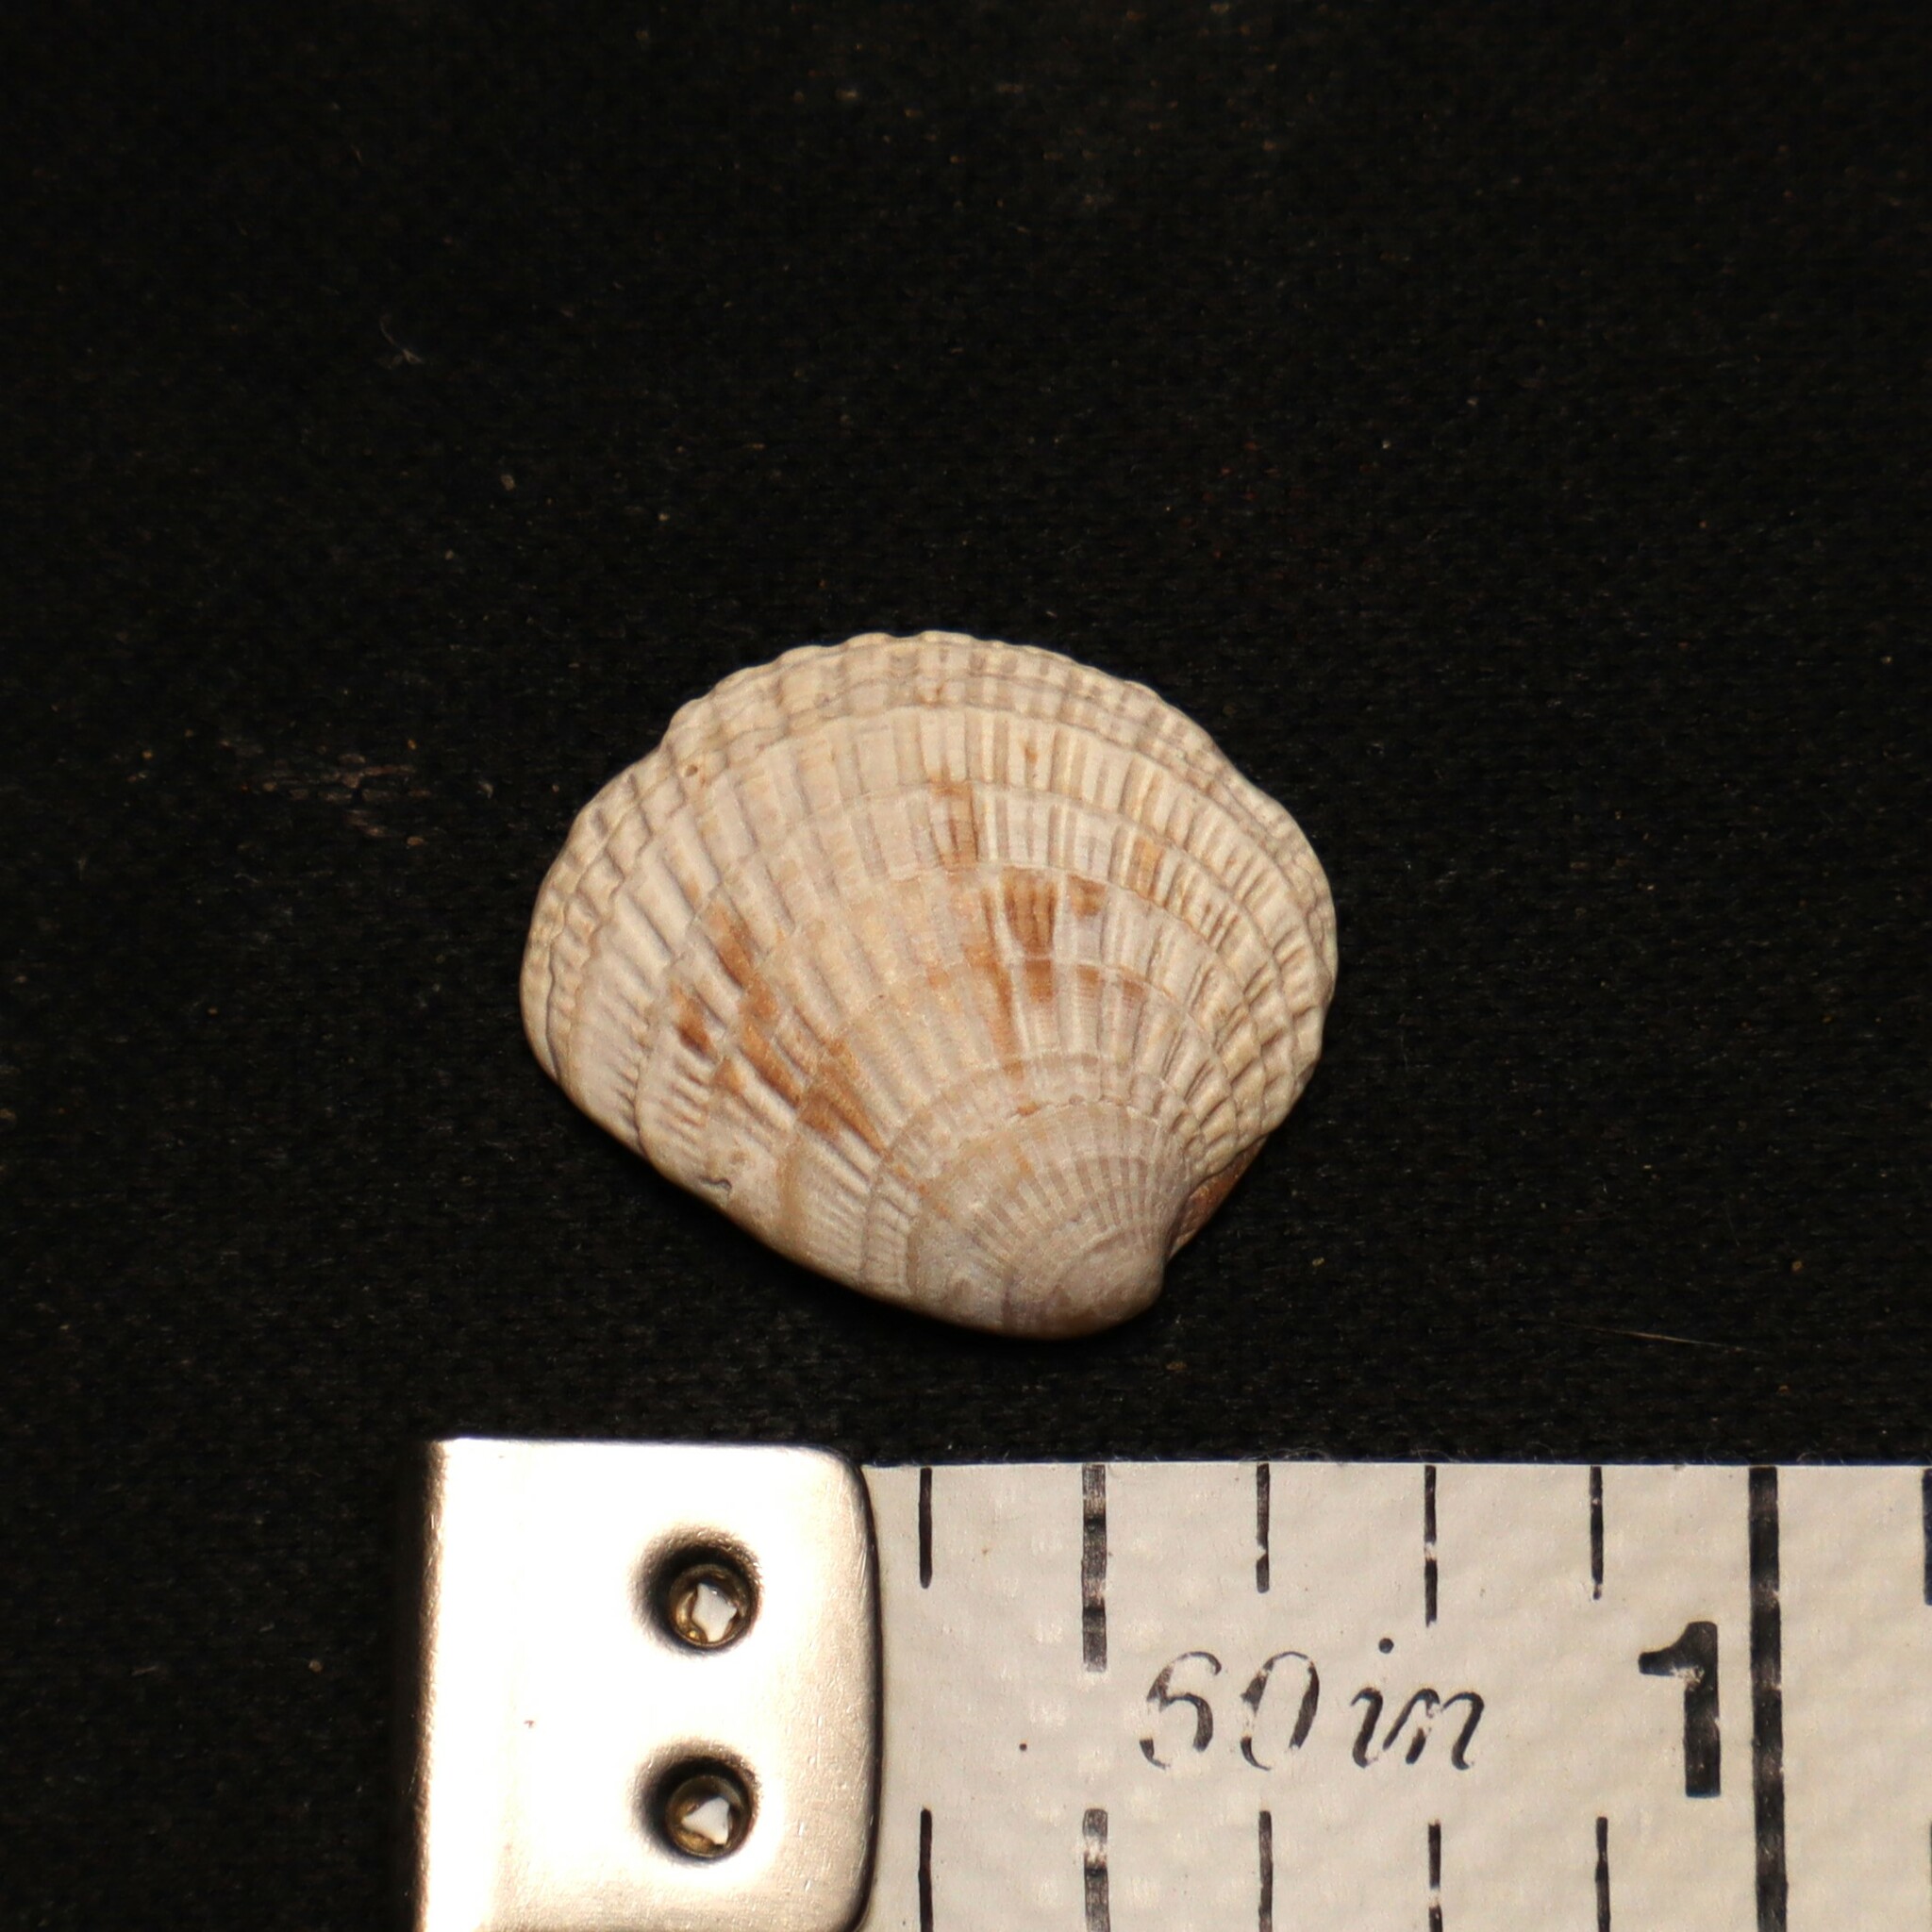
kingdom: Animalia
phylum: Mollusca
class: Bivalvia
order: Venerida
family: Veneridae
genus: Chione
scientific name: Chione elevata
